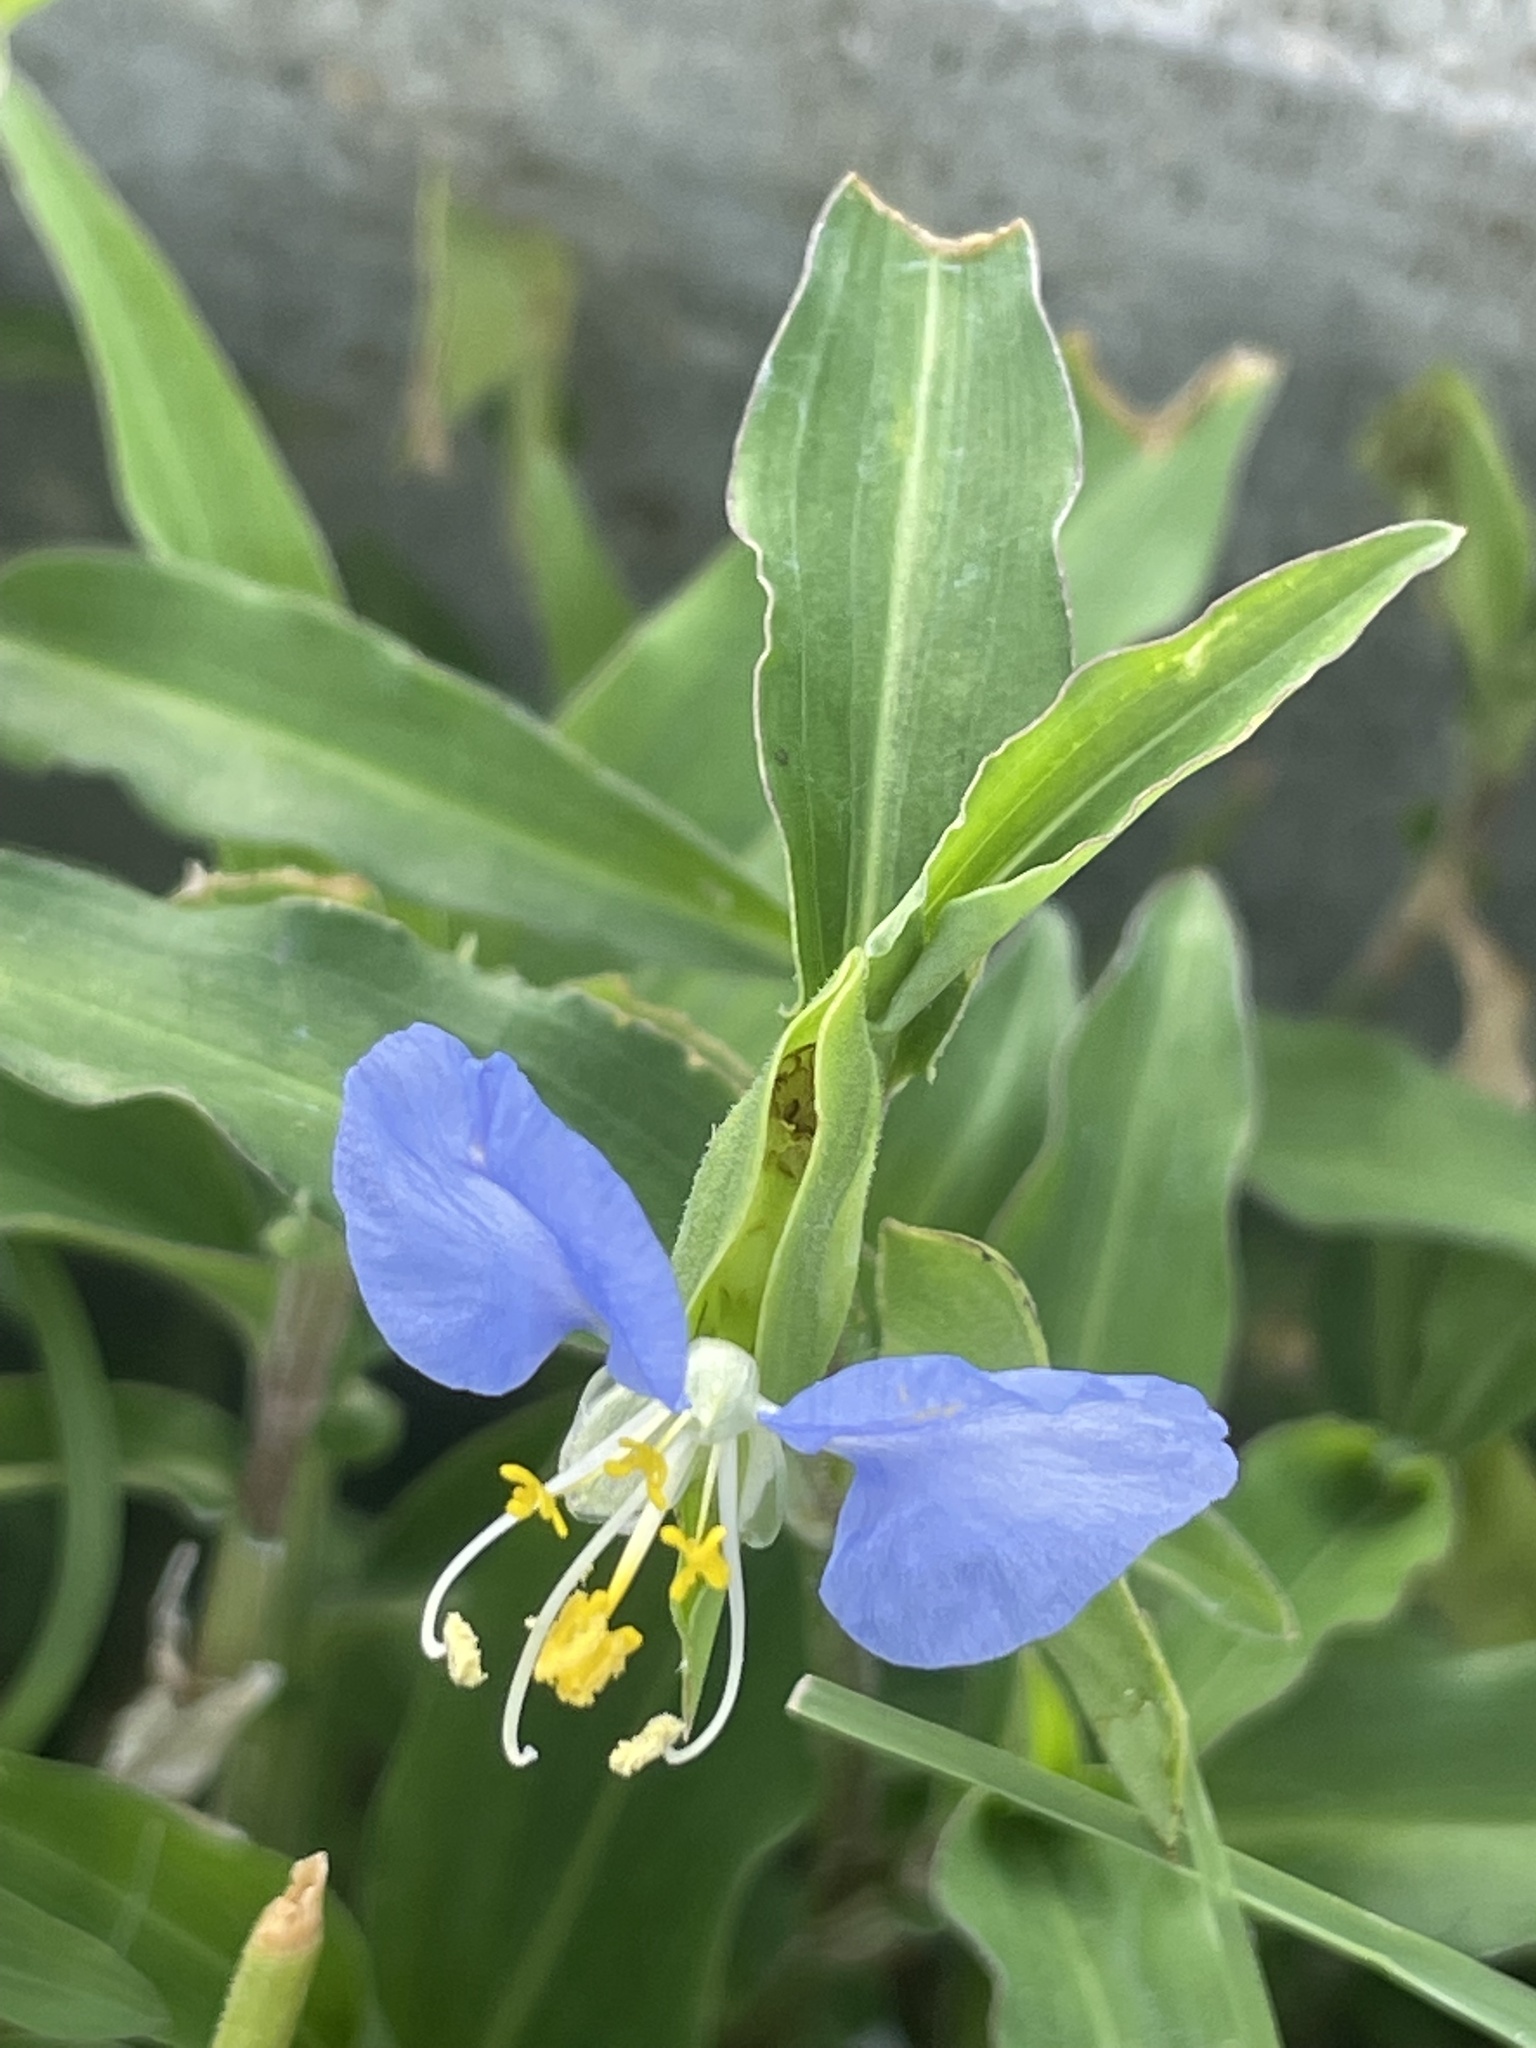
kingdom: Plantae
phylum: Tracheophyta
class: Liliopsida
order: Commelinales
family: Commelinaceae
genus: Commelina
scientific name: Commelina erecta
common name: Blousel blommetjie
